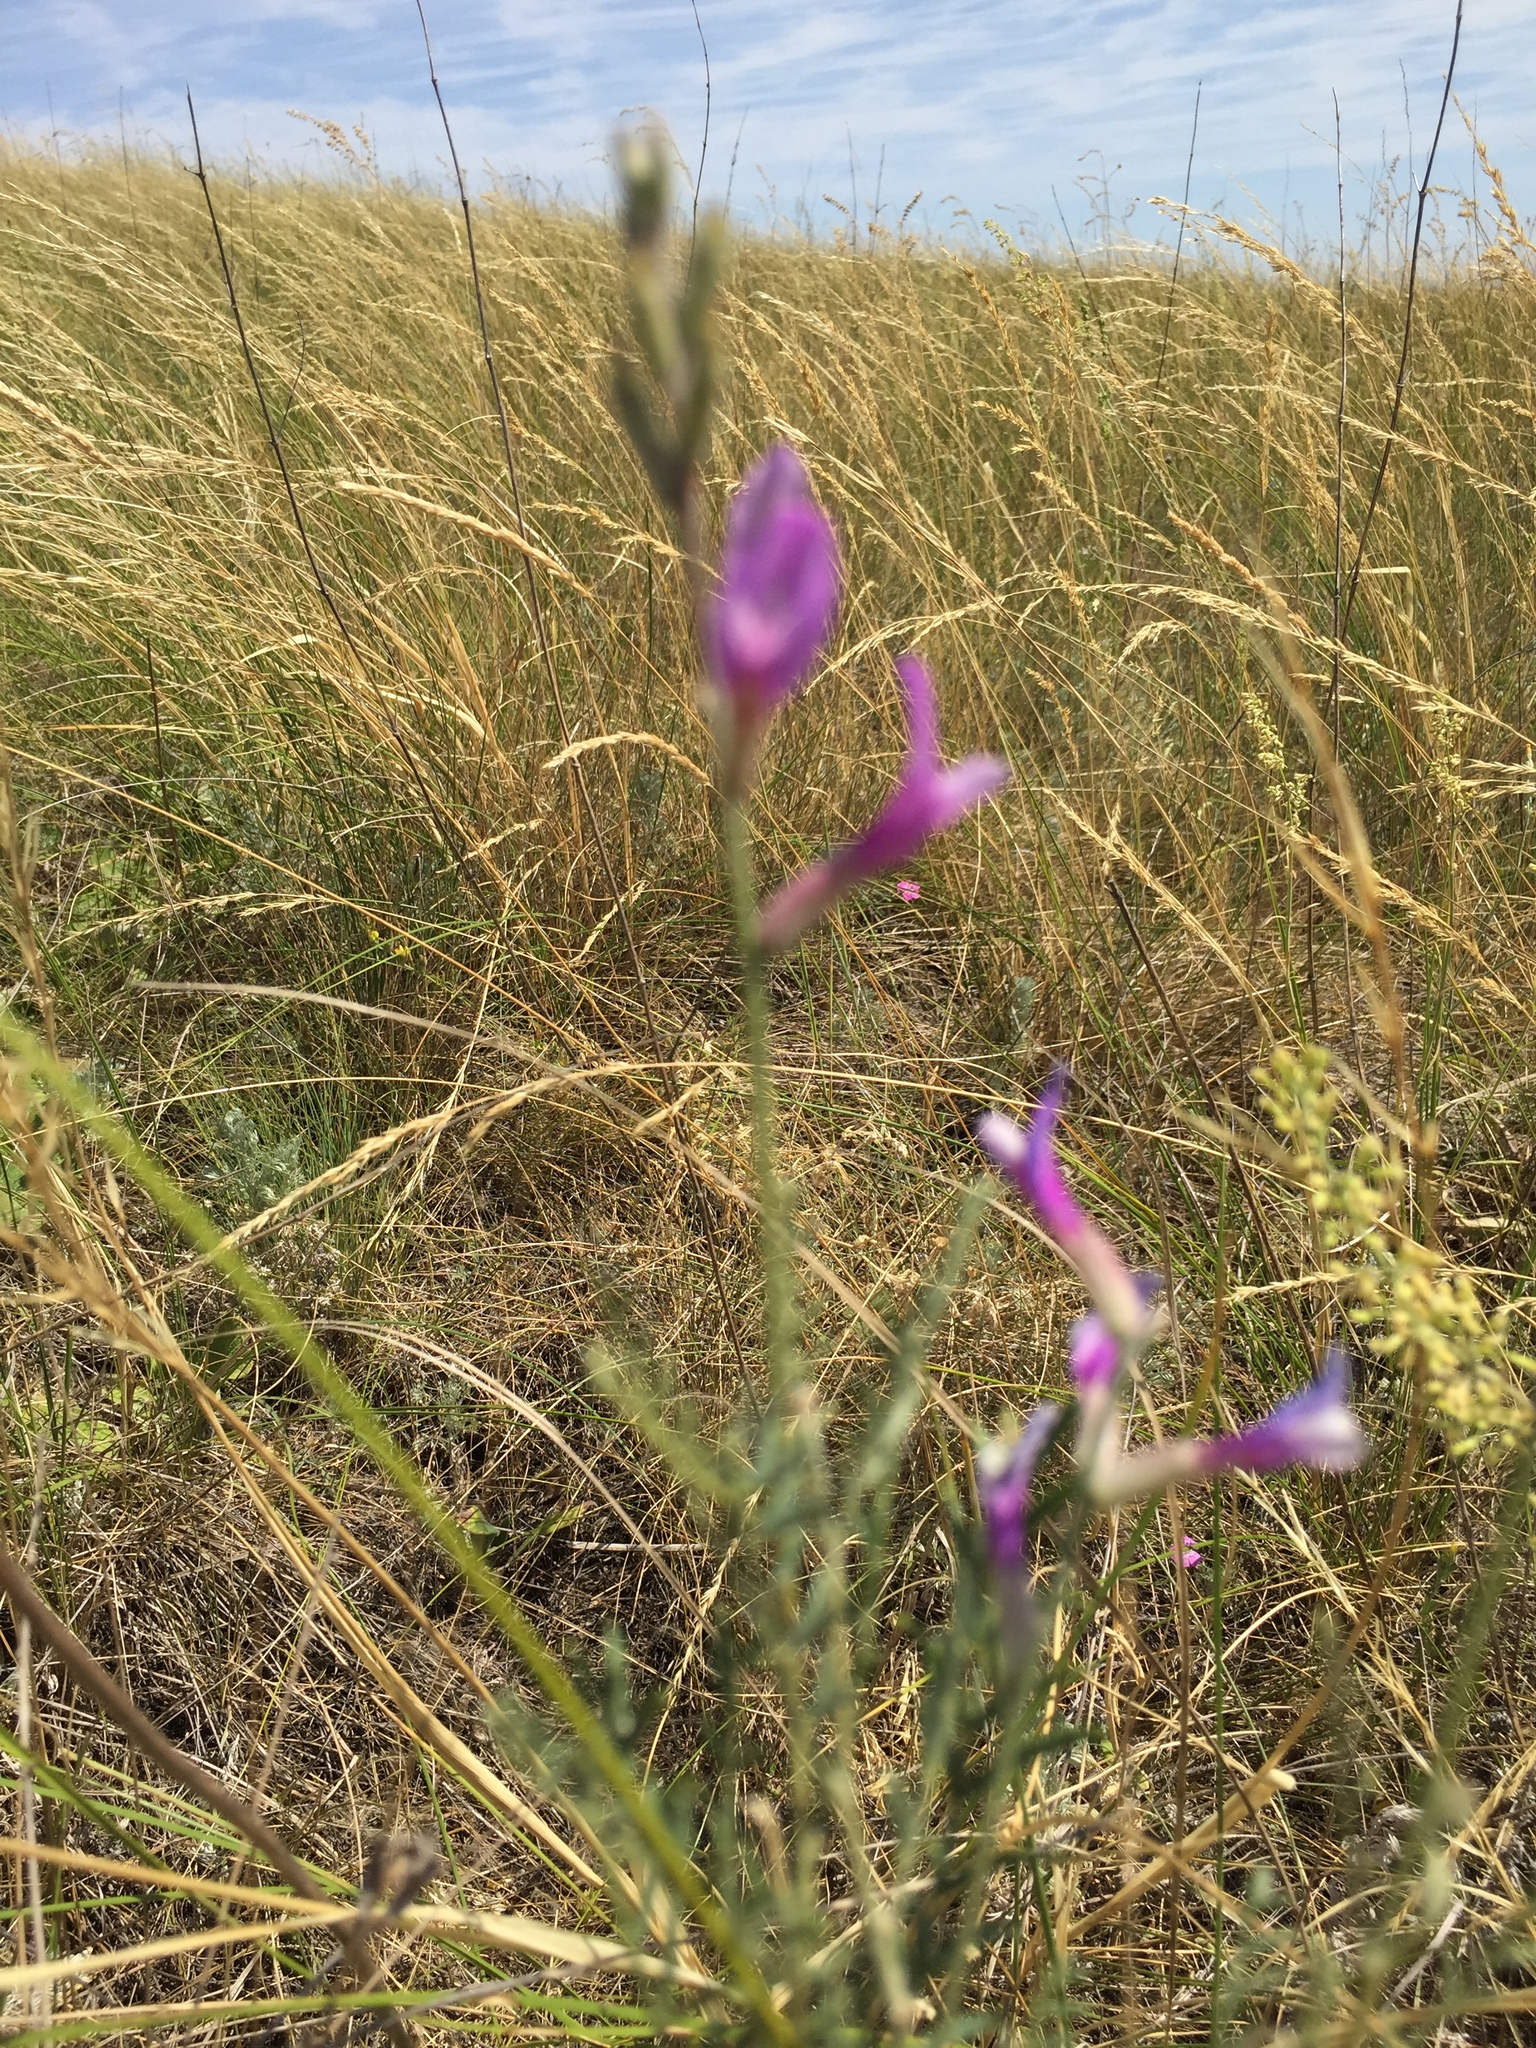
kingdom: Plantae
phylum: Tracheophyta
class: Magnoliopsida
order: Fabales
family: Fabaceae
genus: Astragalus
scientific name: Astragalus varius
